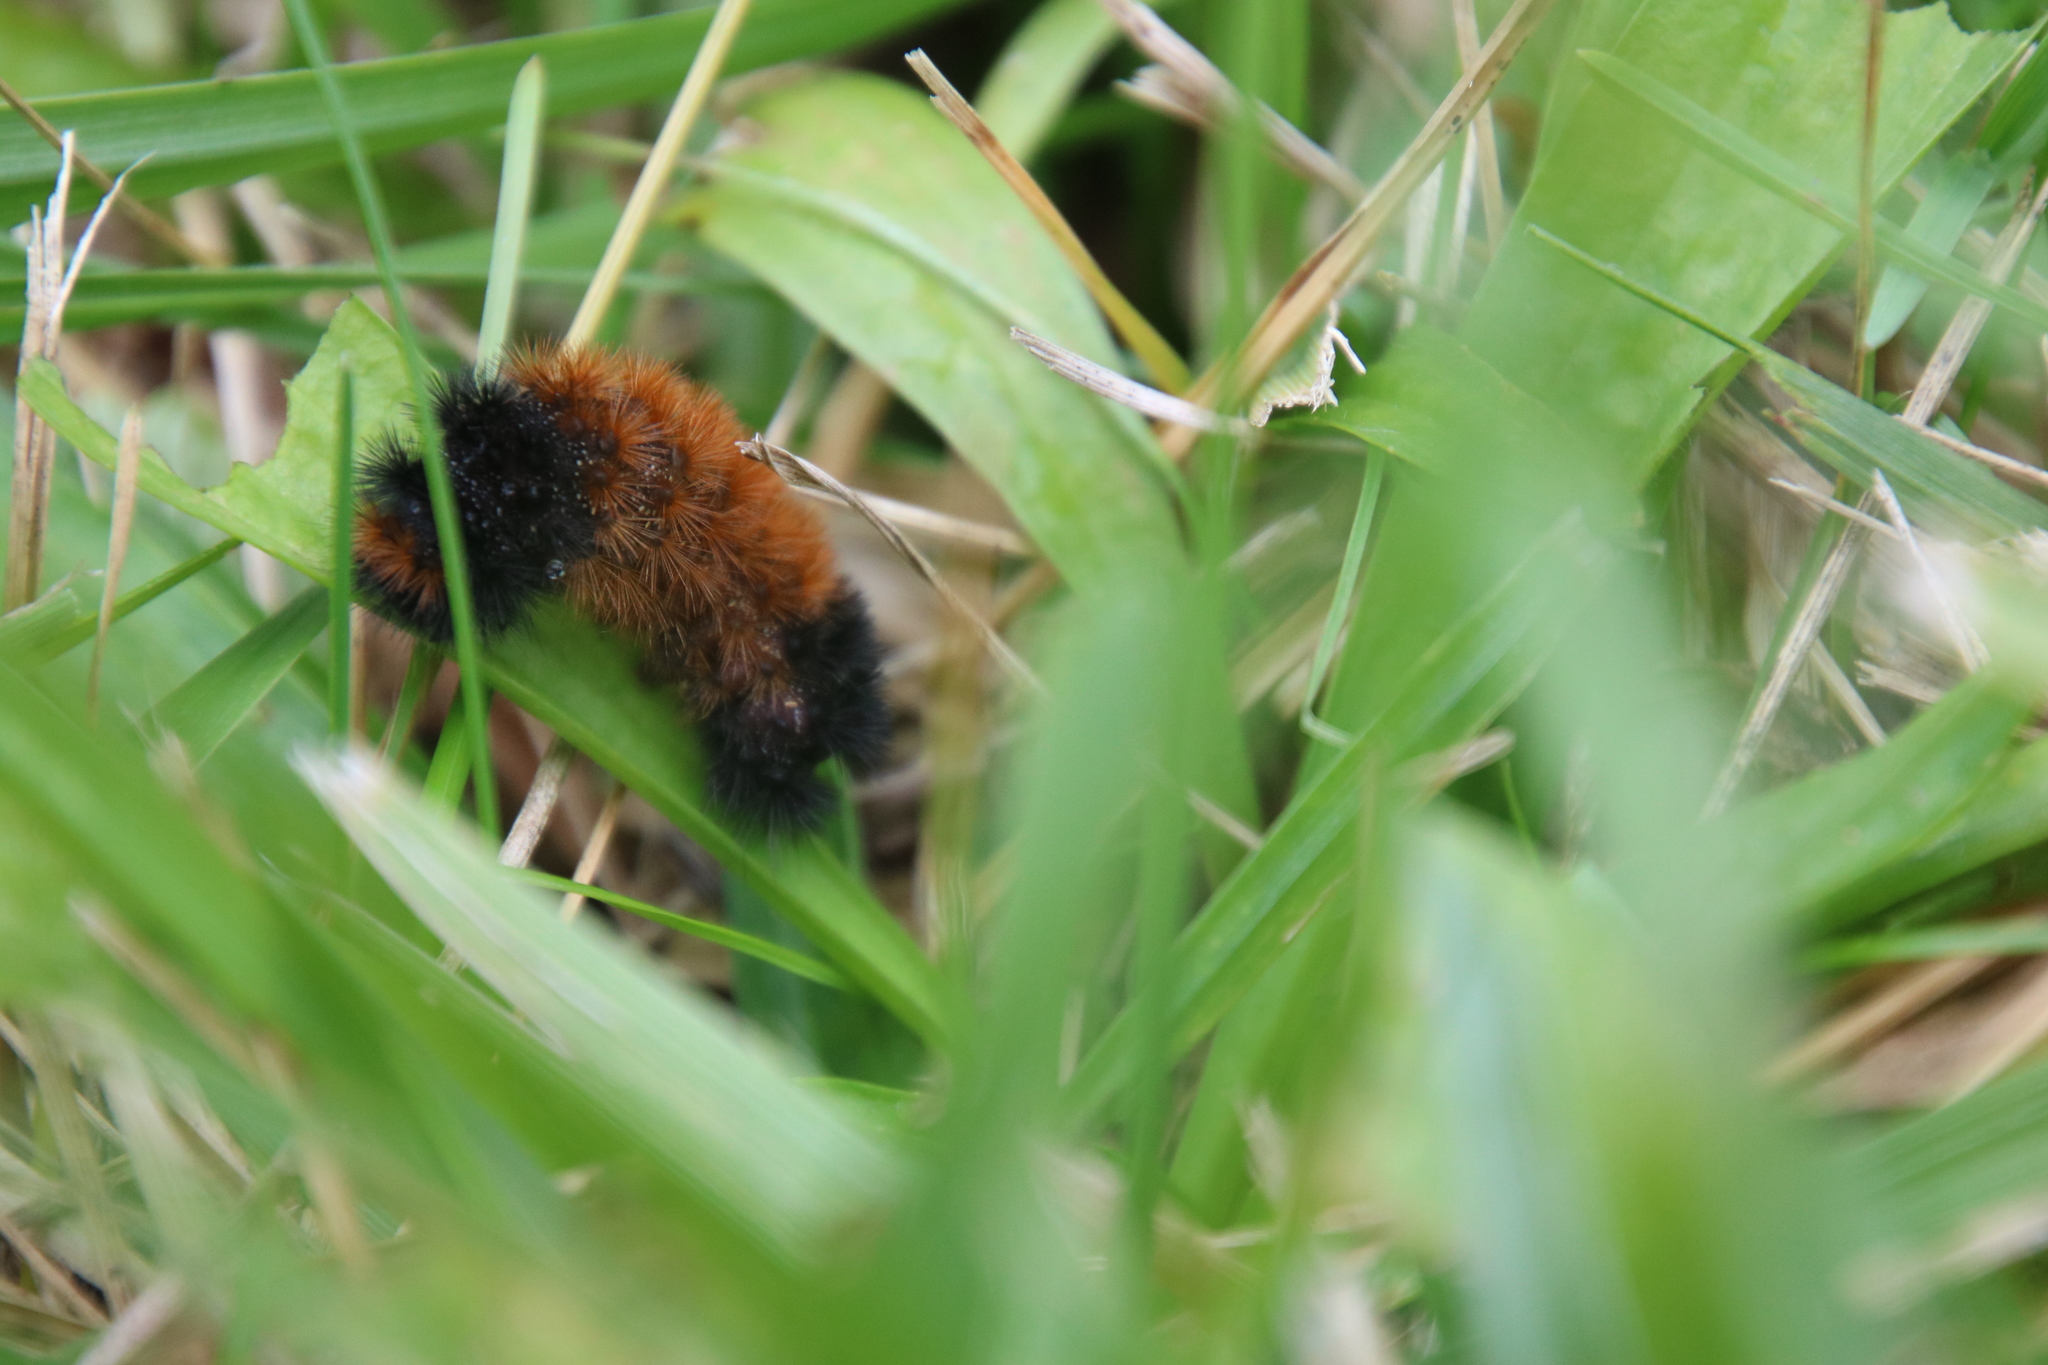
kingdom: Animalia
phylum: Arthropoda
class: Insecta
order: Lepidoptera
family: Erebidae
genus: Pyrrharctia
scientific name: Pyrrharctia isabella
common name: Isabella tiger moth
